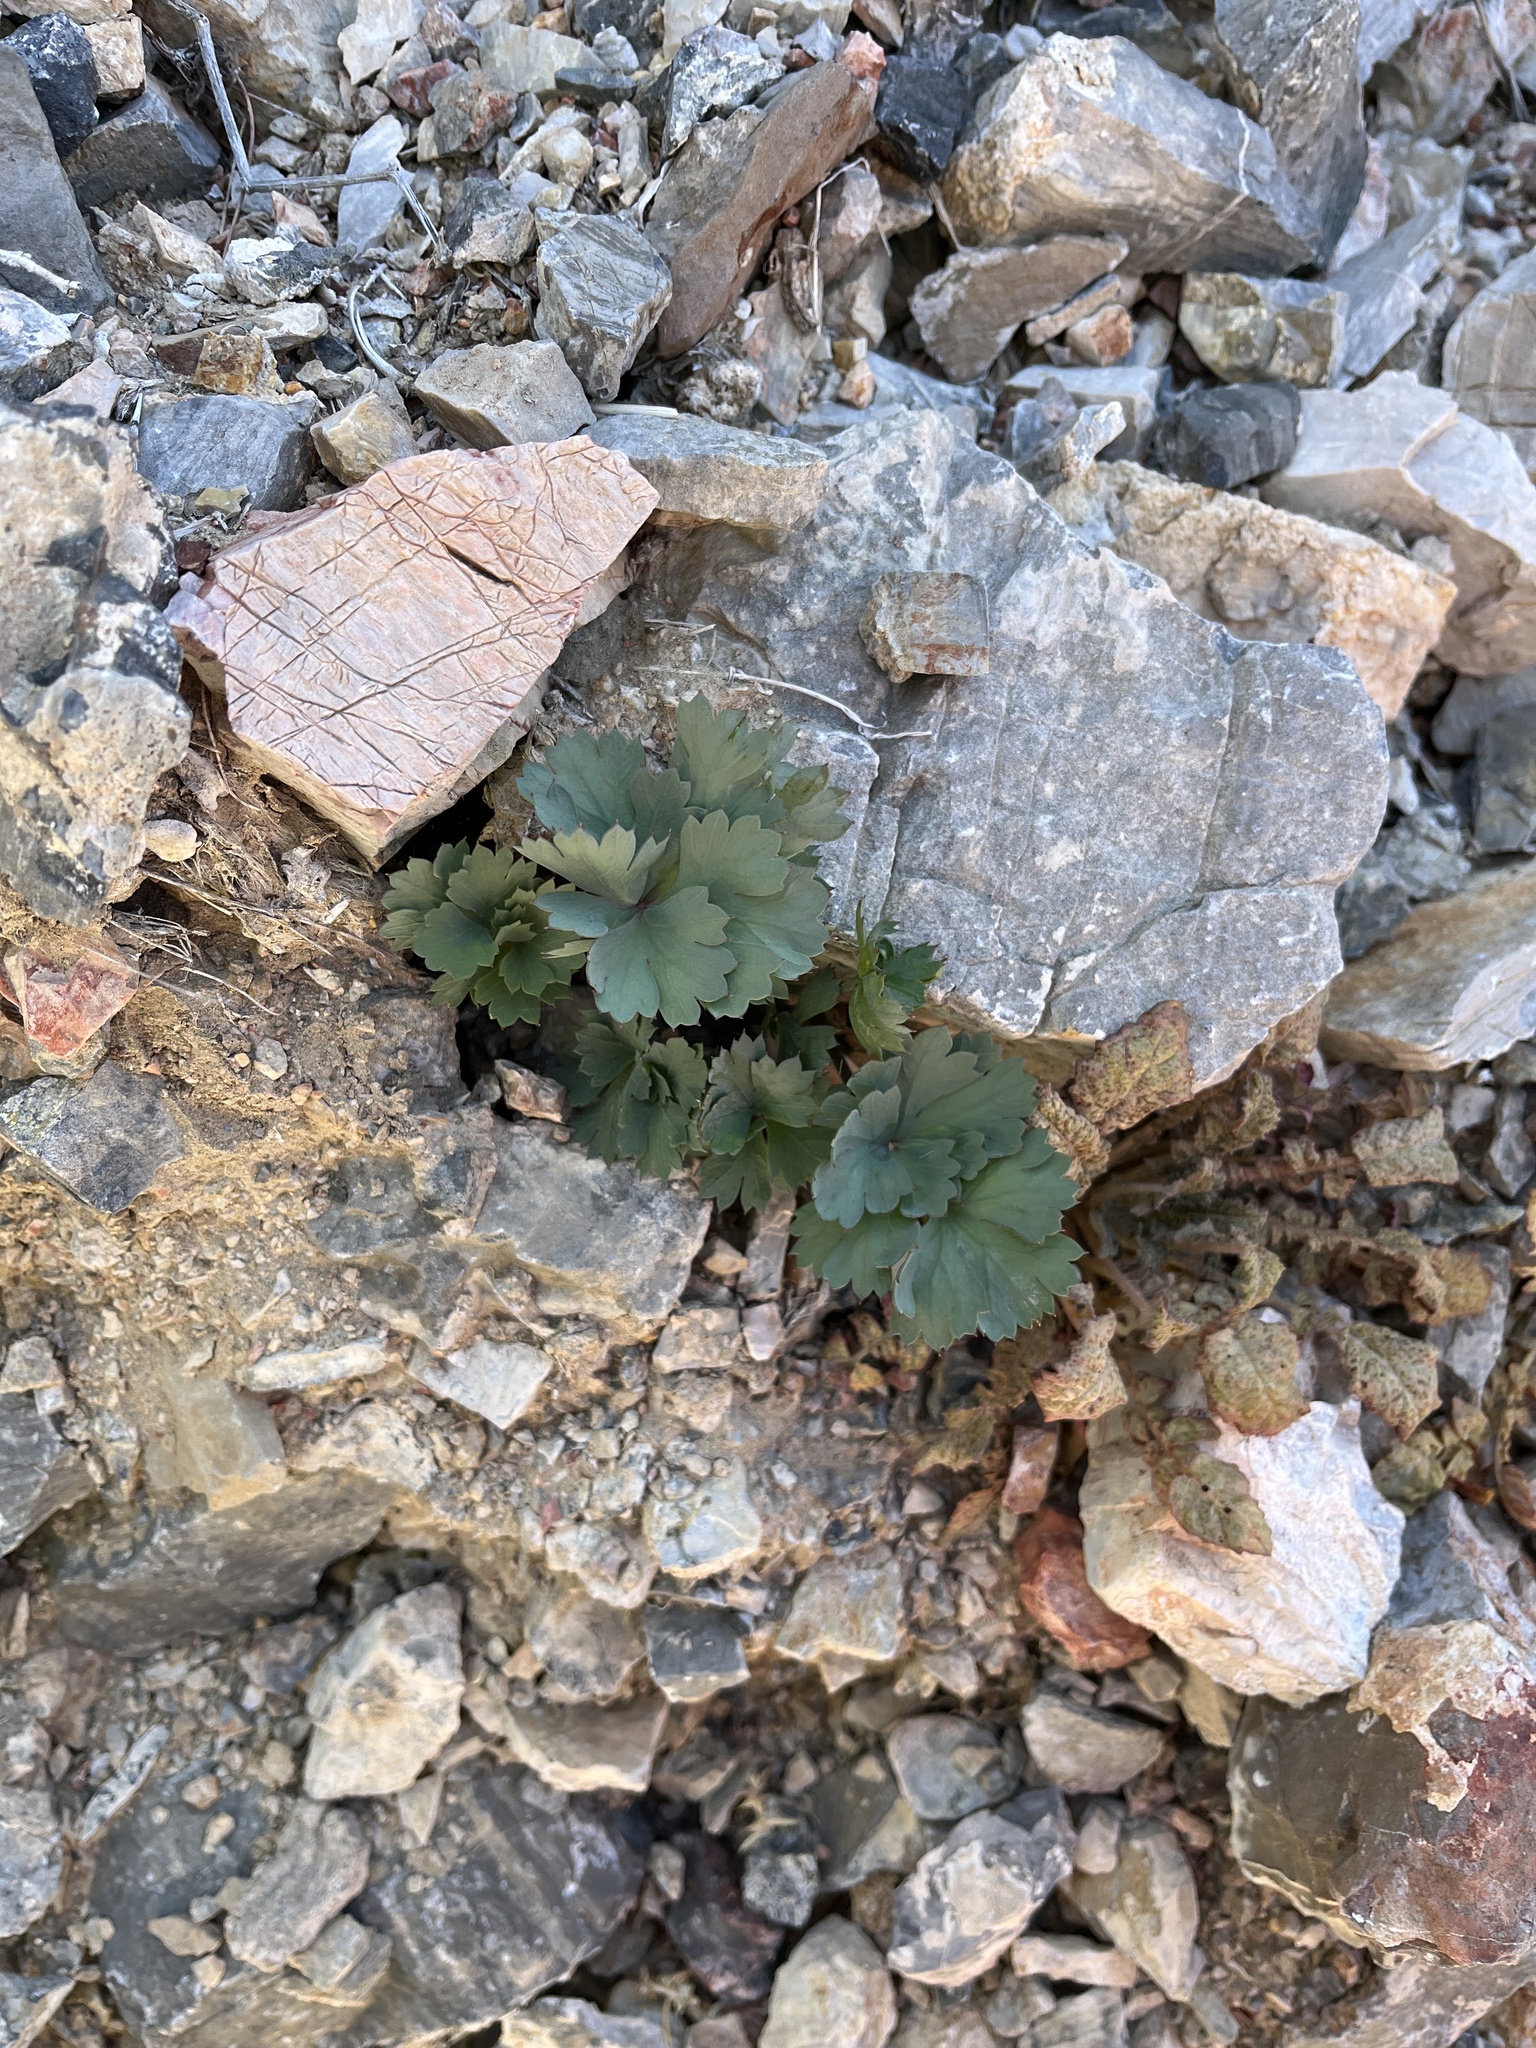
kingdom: Plantae
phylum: Tracheophyta
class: Magnoliopsida
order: Apiales
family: Apiaceae
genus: Cymopterus
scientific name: Cymopterus gilmanii
